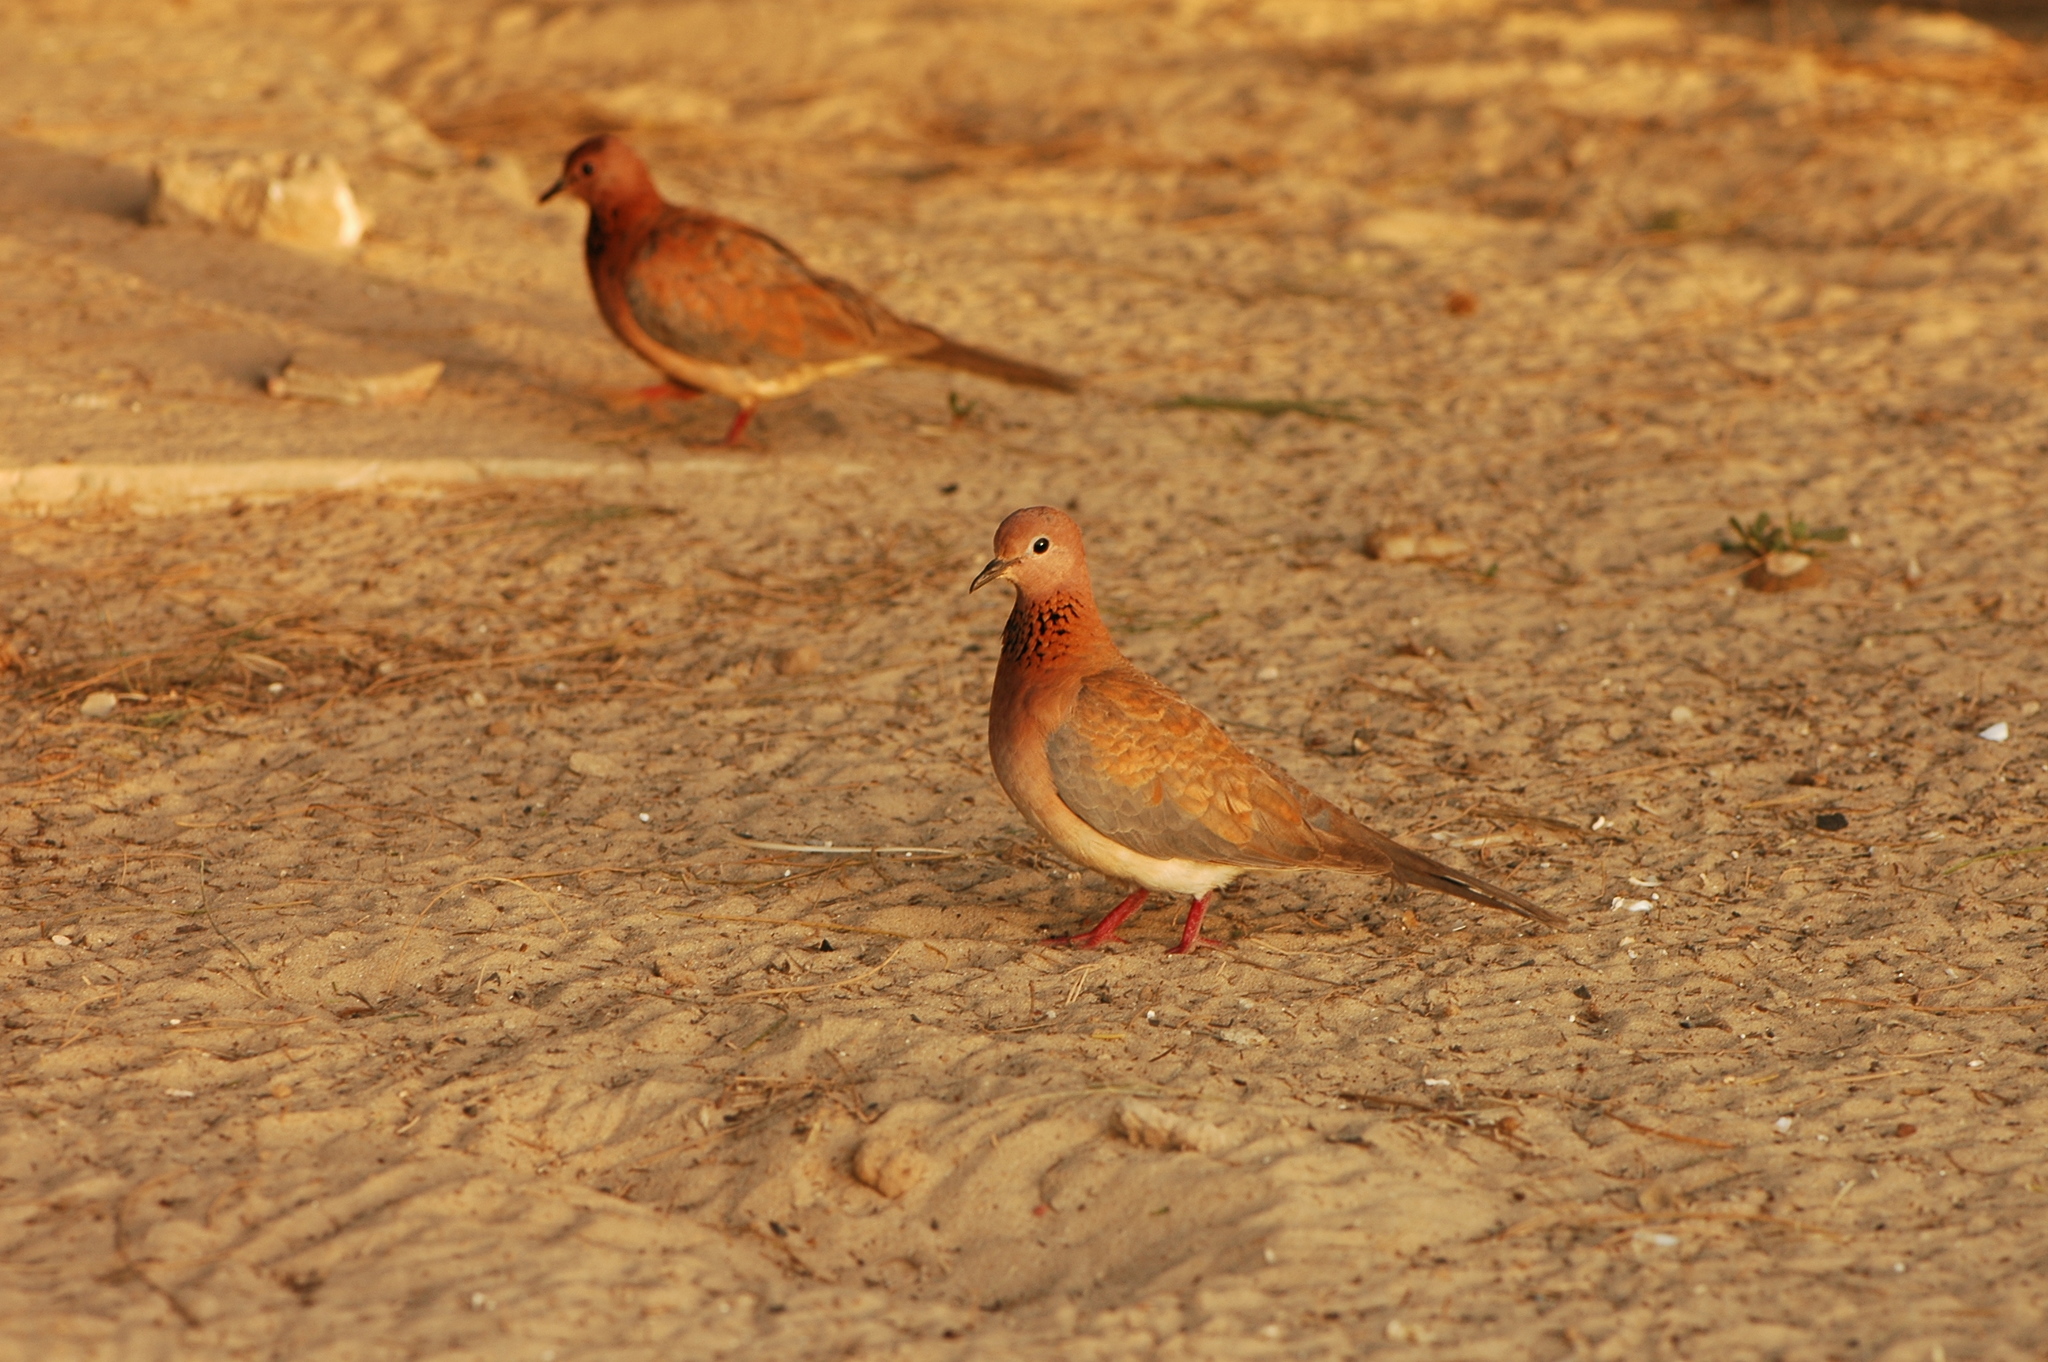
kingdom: Animalia
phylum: Chordata
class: Aves
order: Columbiformes
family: Columbidae
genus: Spilopelia
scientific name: Spilopelia senegalensis
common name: Laughing dove
